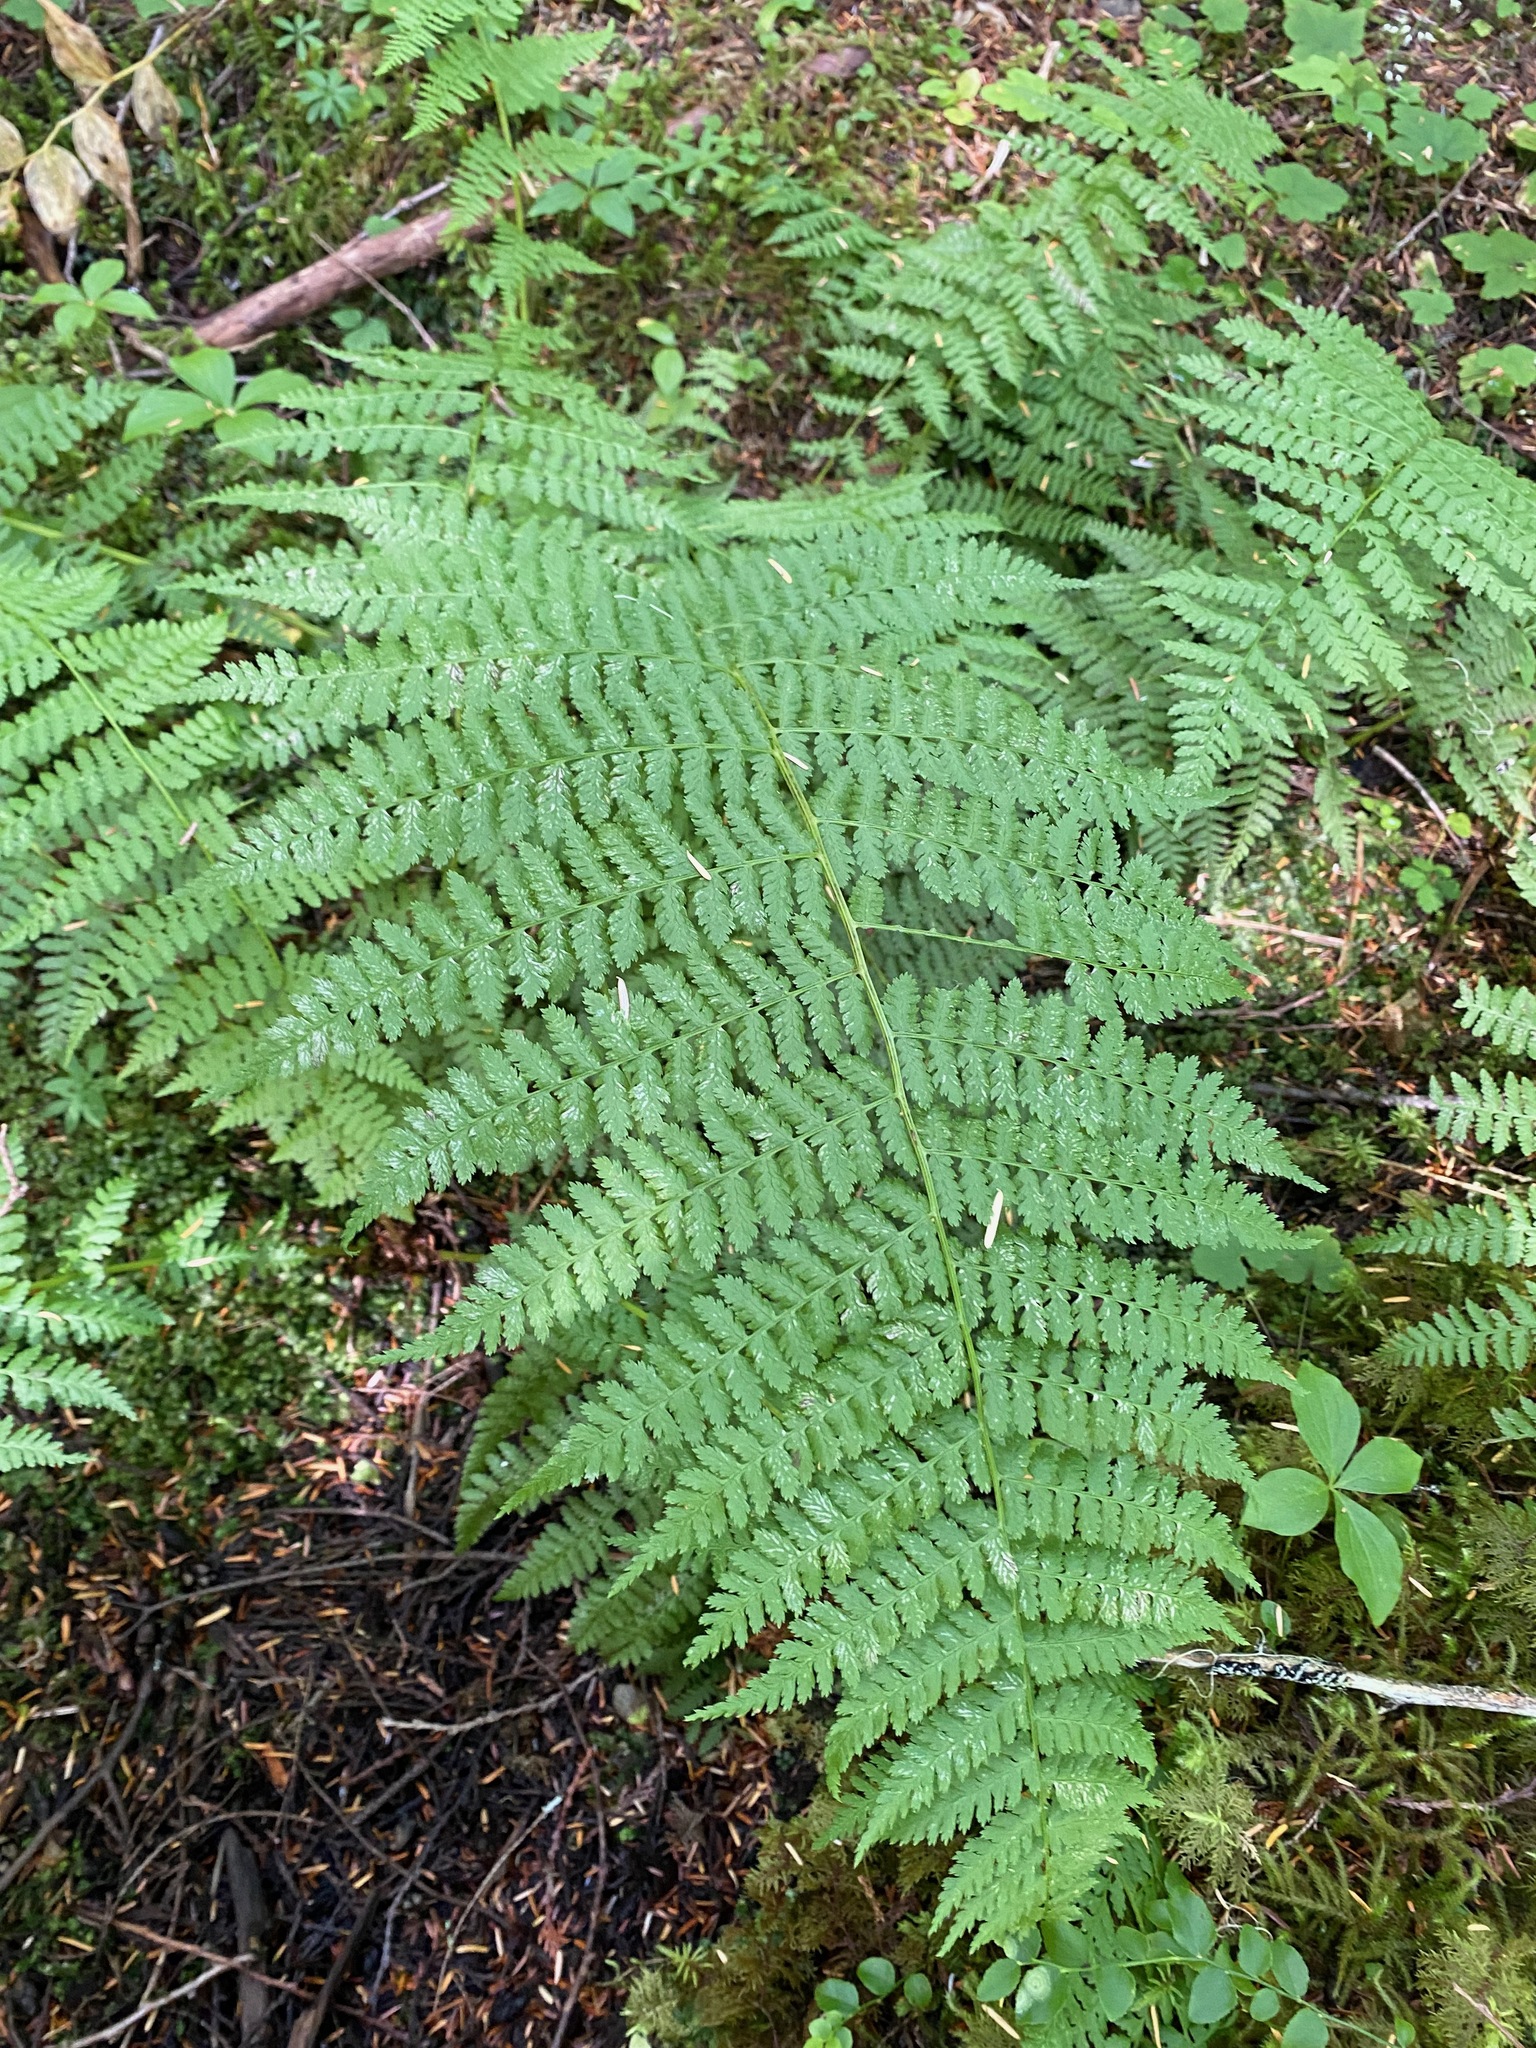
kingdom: Plantae
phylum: Tracheophyta
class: Polypodiopsida
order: Polypodiales
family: Athyriaceae
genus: Athyrium
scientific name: Athyrium filix-femina
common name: Lady fern
